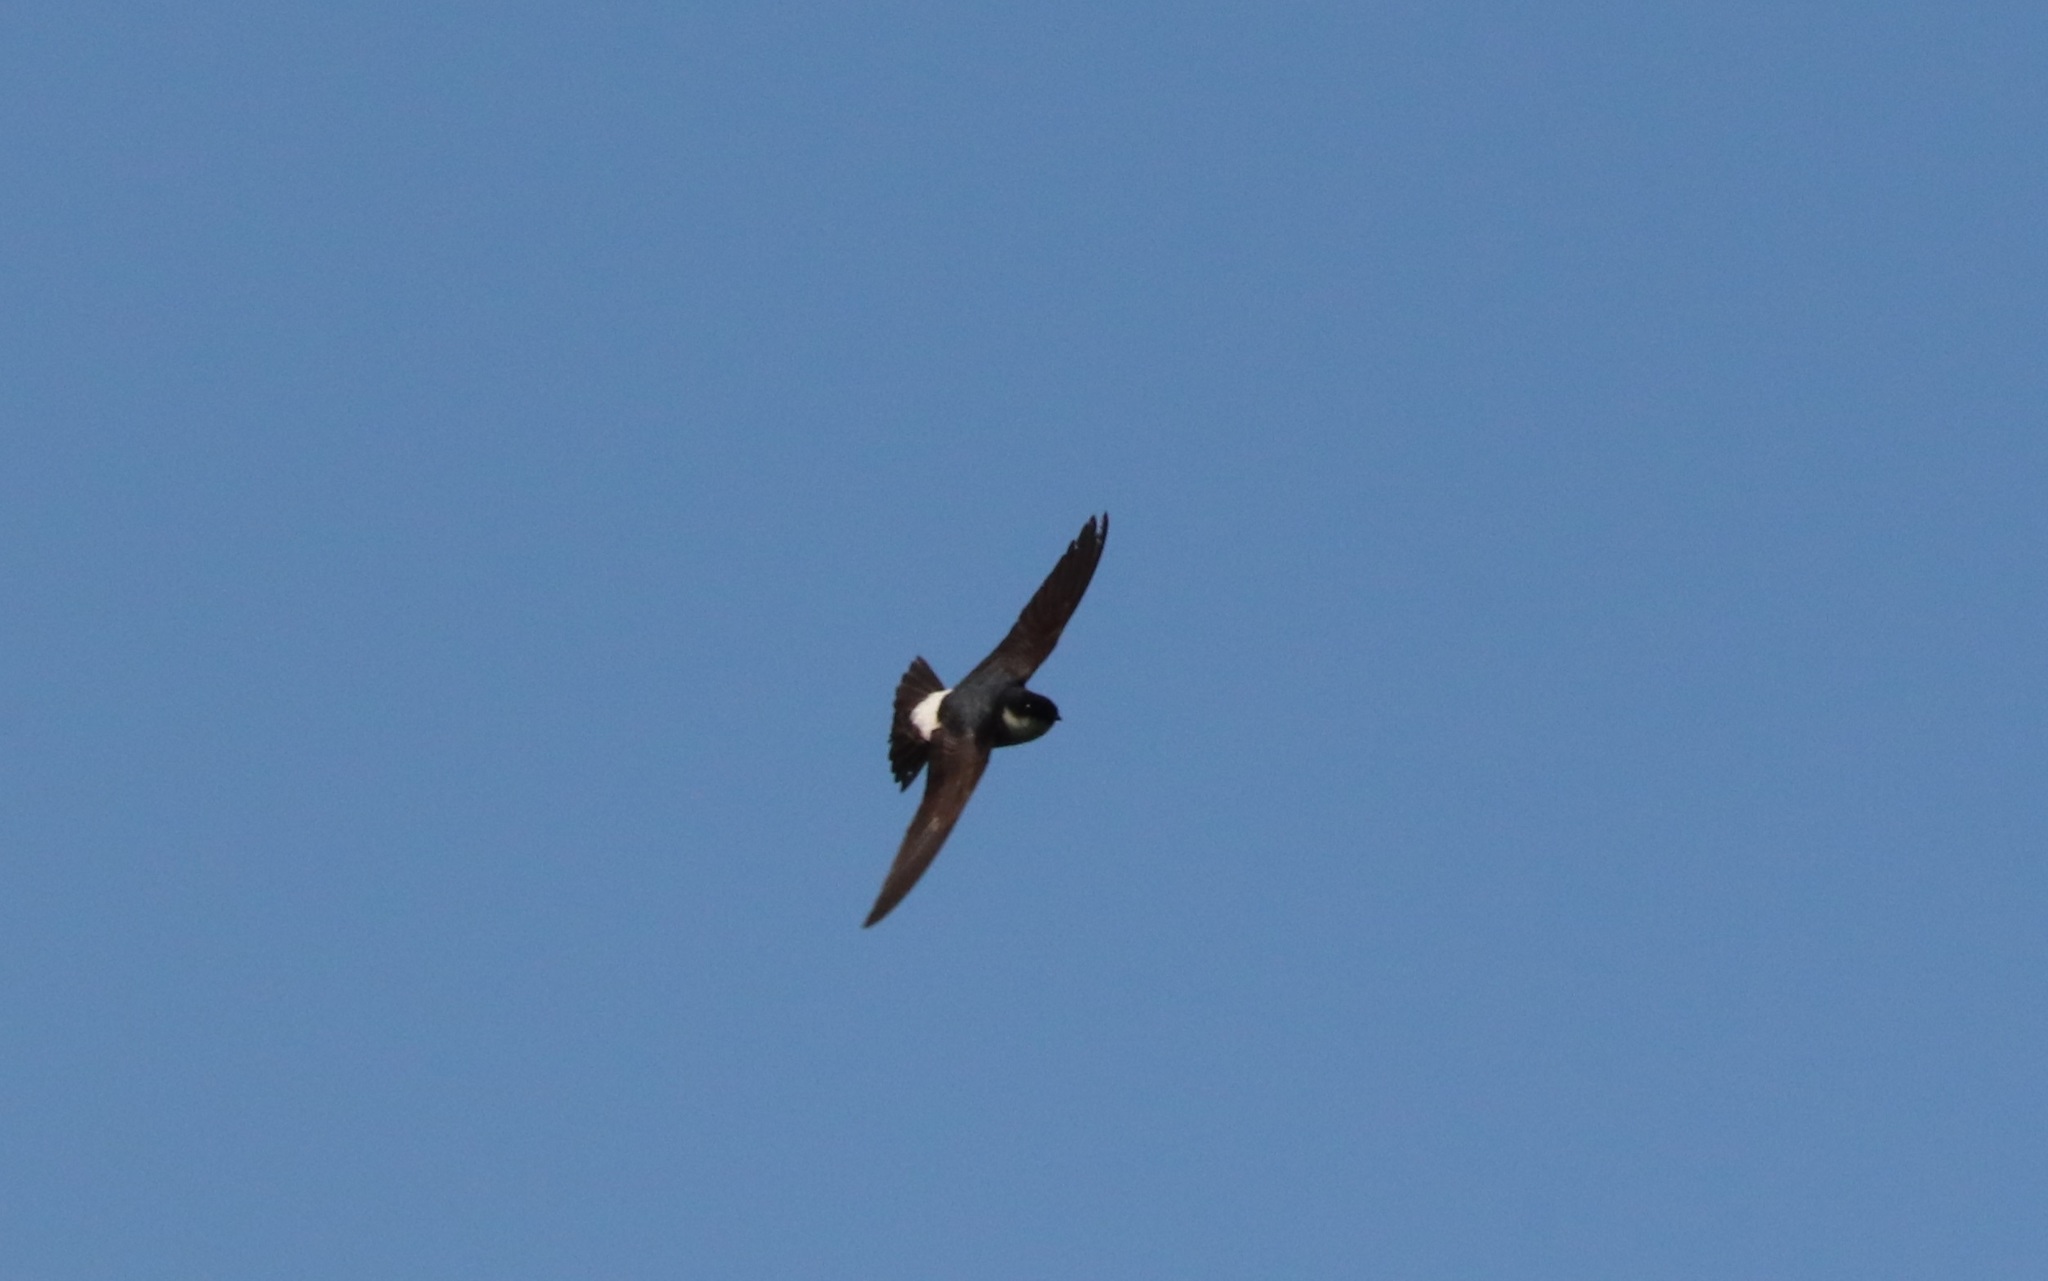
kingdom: Animalia
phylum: Chordata
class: Aves
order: Passeriformes
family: Hirundinidae
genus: Delichon
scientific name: Delichon dasypus
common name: Asian house martin
